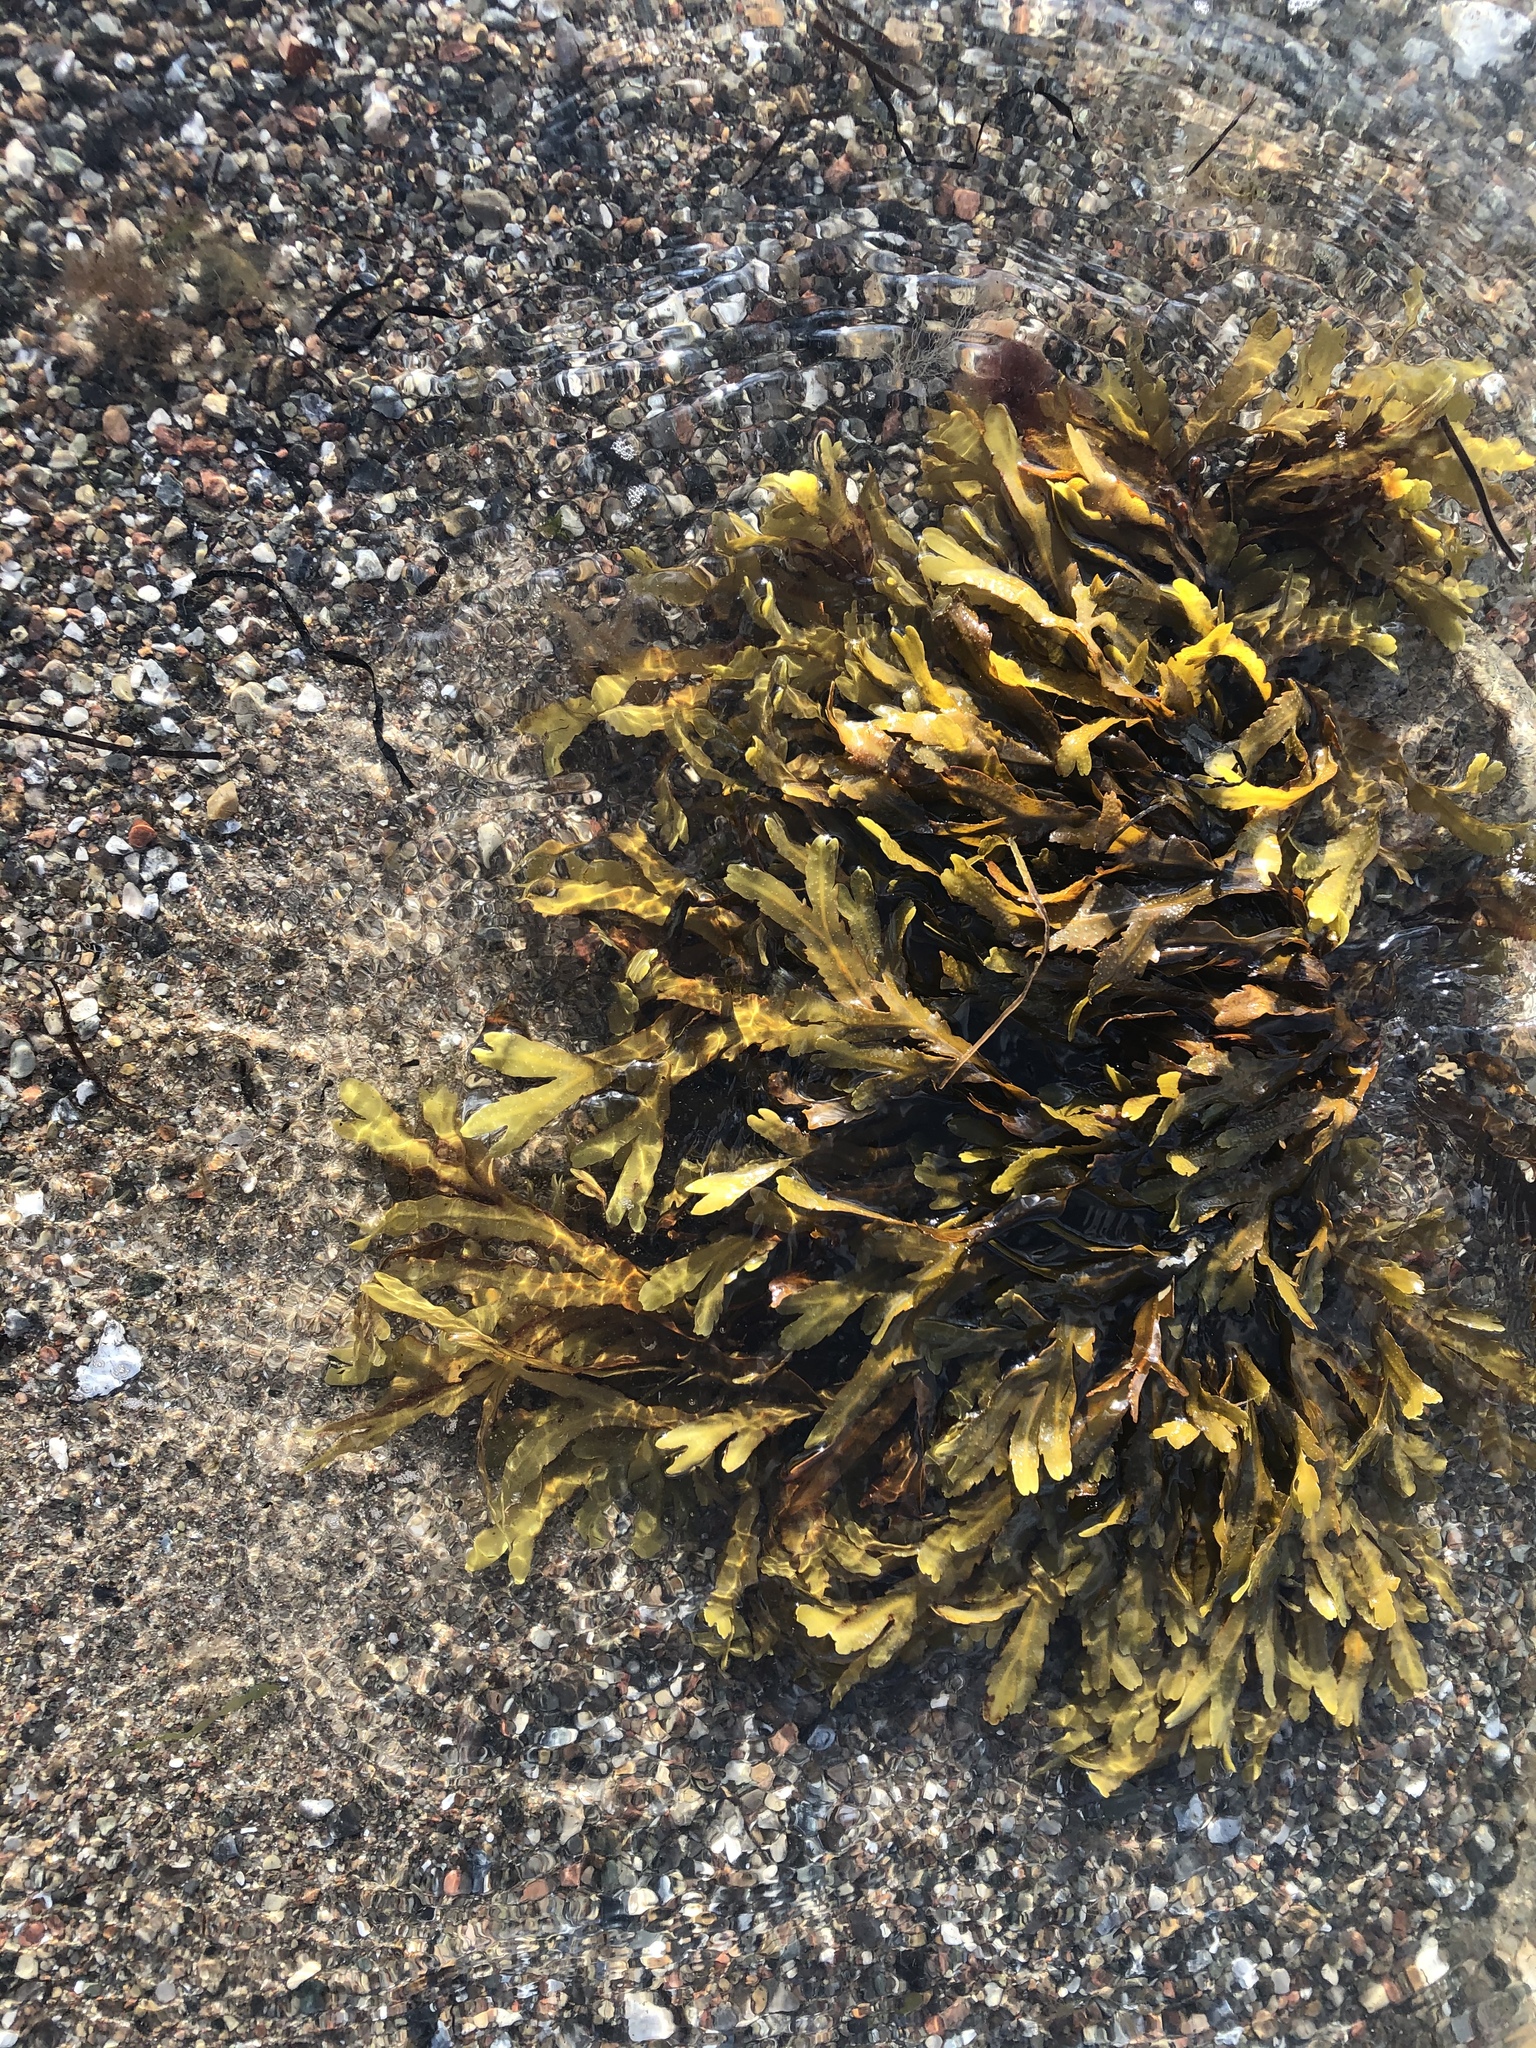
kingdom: Chromista
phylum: Ochrophyta
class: Phaeophyceae
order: Fucales
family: Fucaceae
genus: Fucus
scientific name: Fucus serratus
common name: Toothed wrack
